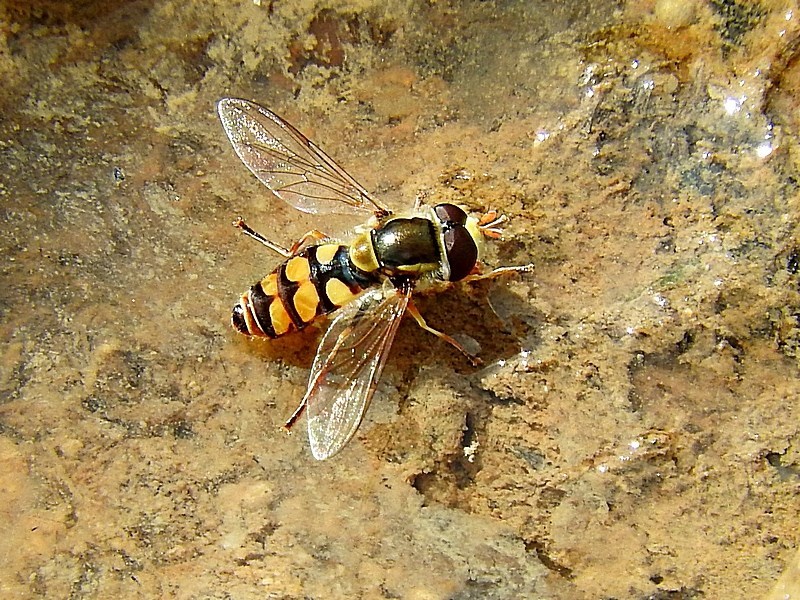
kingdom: Animalia
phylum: Arthropoda
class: Insecta
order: Diptera
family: Syrphidae
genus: Simosyrphus
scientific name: Simosyrphus grandicornis
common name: Hoverfly
